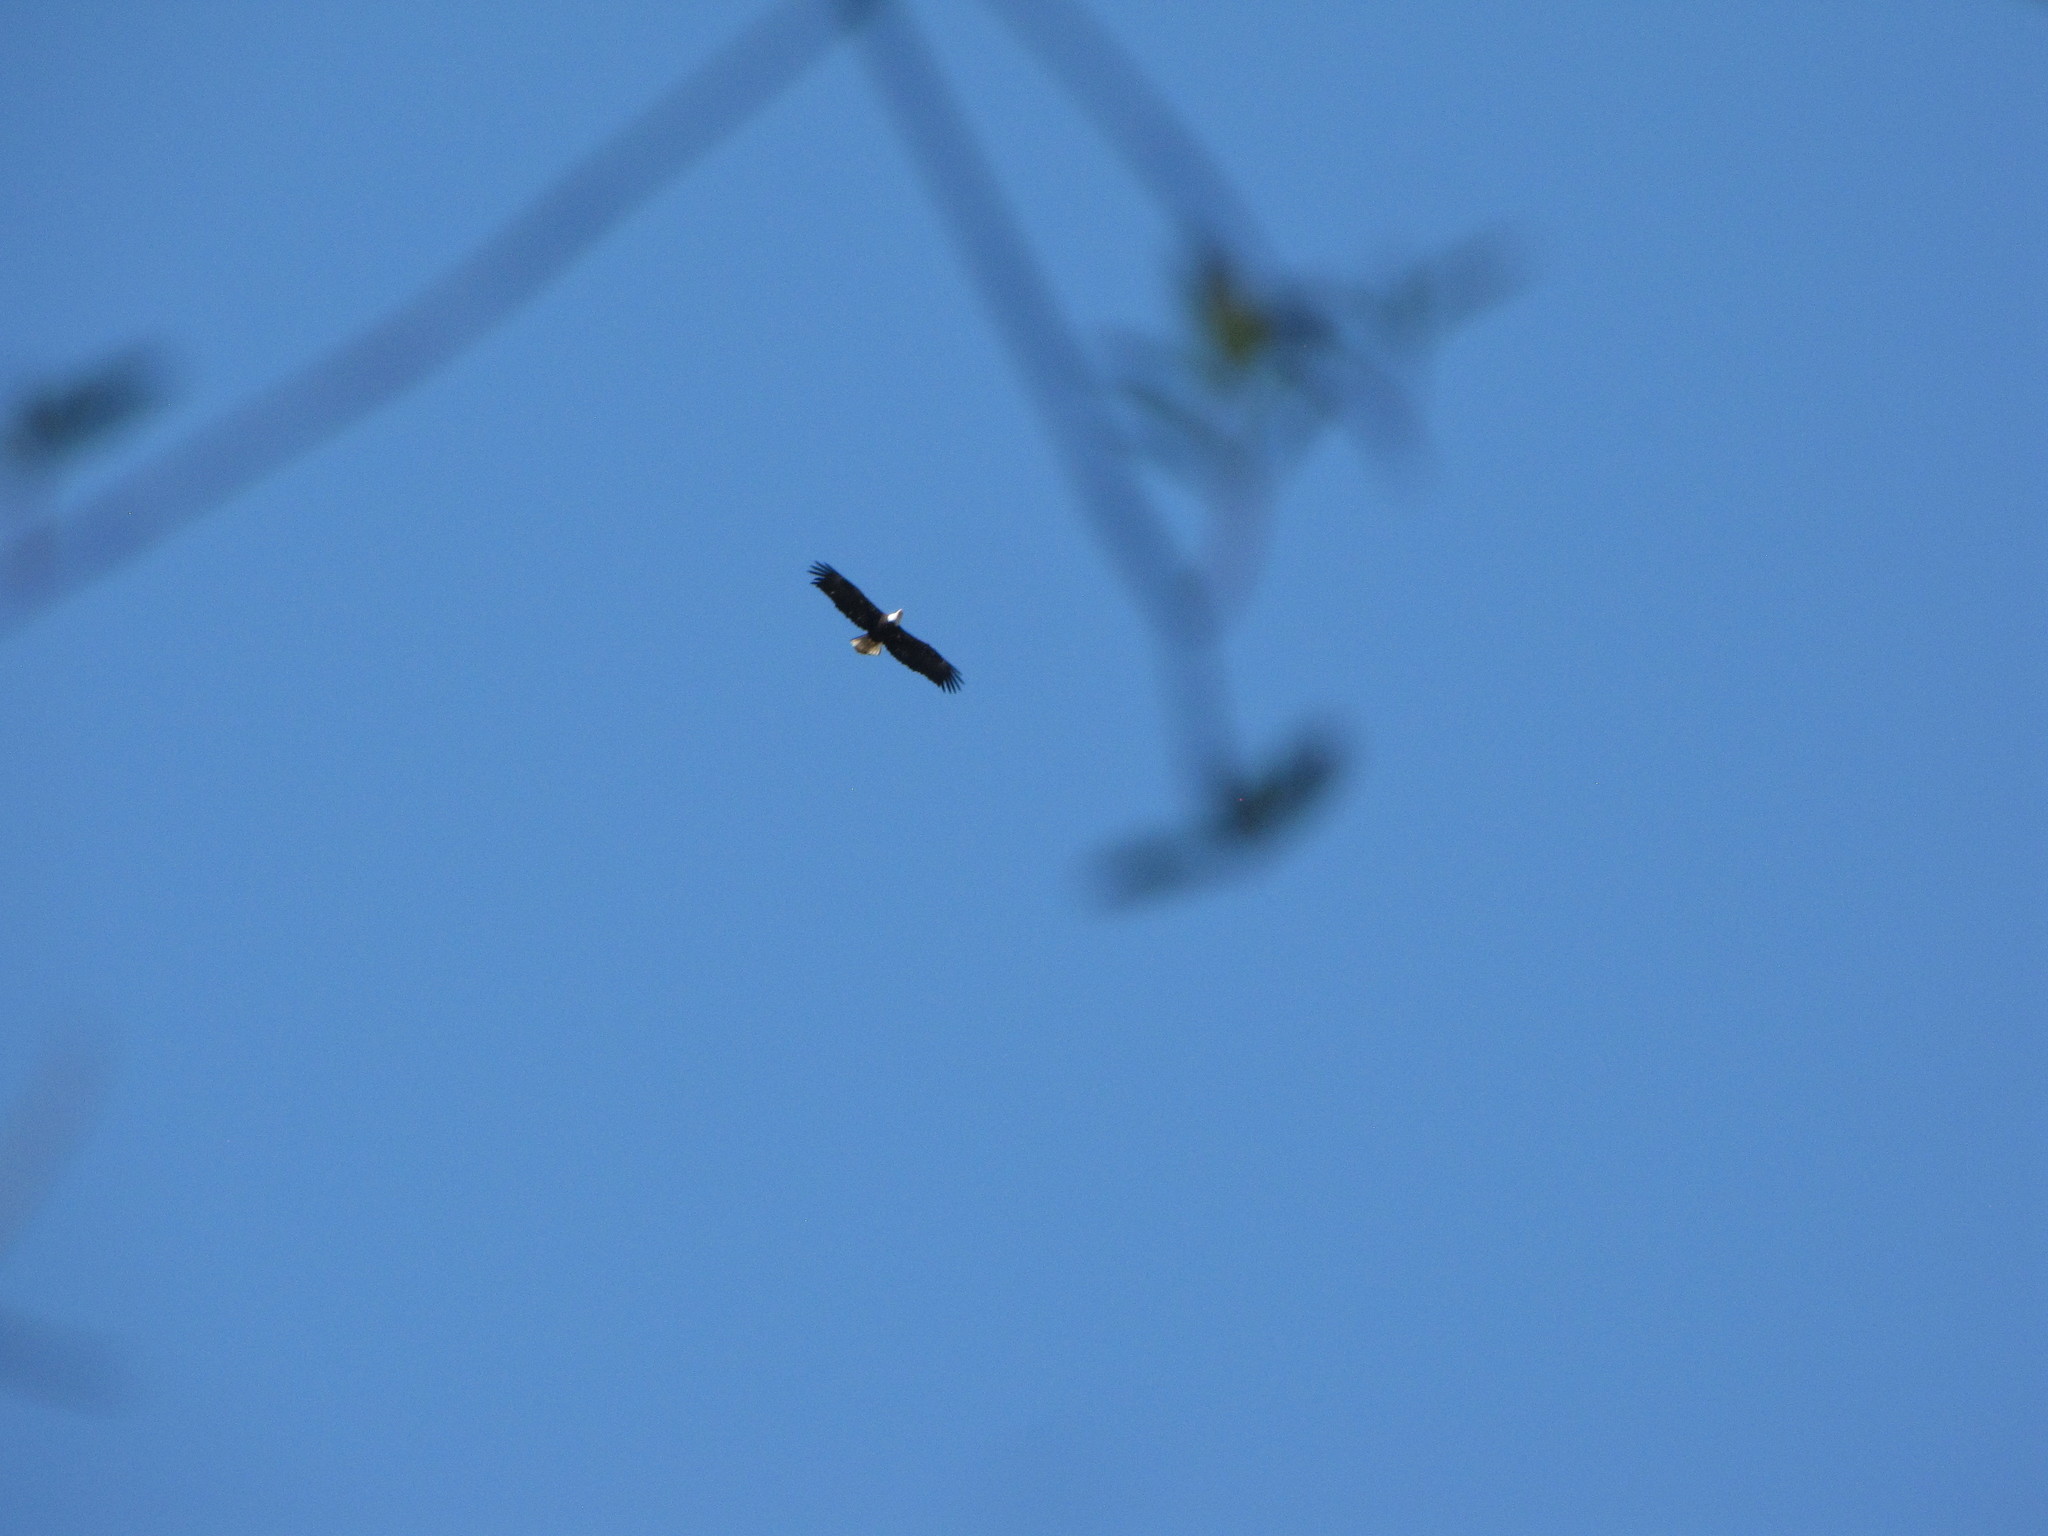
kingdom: Animalia
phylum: Chordata
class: Aves
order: Accipitriformes
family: Accipitridae
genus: Haliaeetus
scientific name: Haliaeetus leucocephalus
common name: Bald eagle
